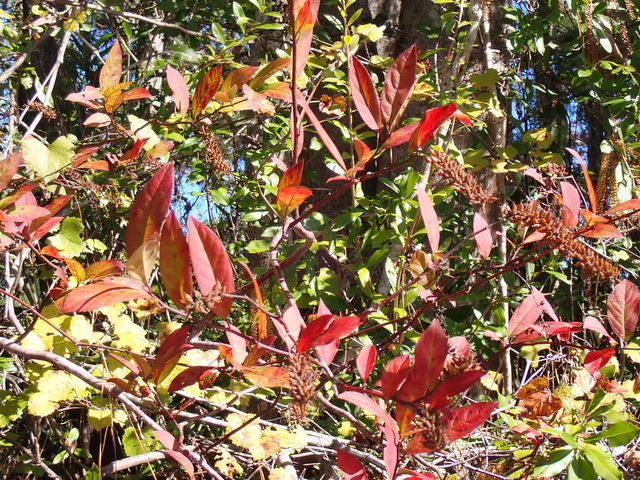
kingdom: Plantae
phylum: Tracheophyta
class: Magnoliopsida
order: Saxifragales
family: Iteaceae
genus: Itea
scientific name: Itea virginica
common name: Sweetspire
